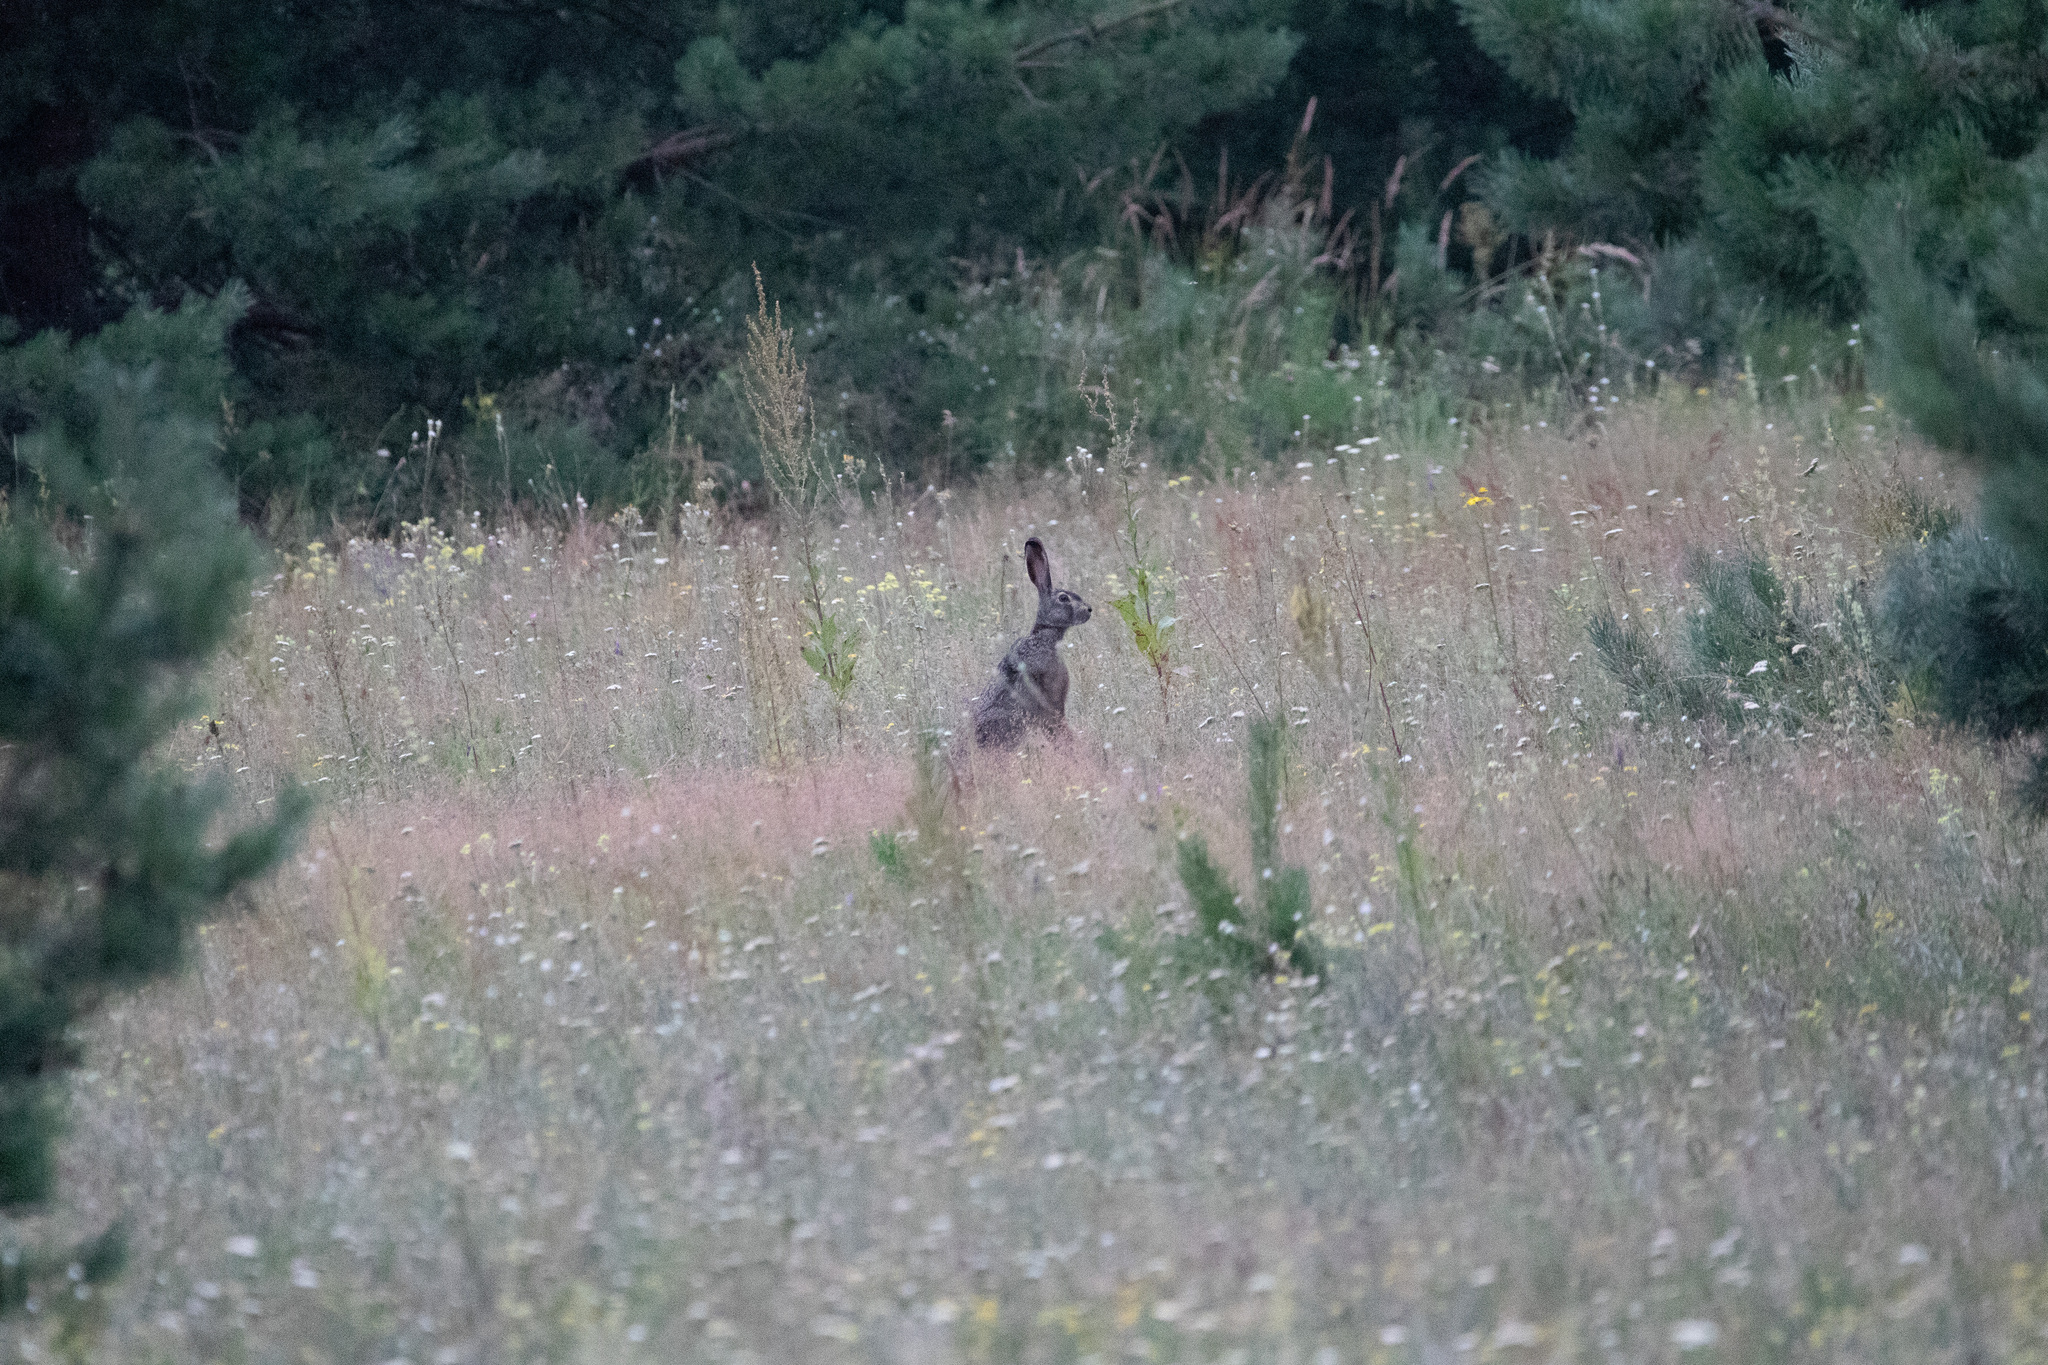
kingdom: Animalia
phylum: Chordata
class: Mammalia
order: Lagomorpha
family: Leporidae
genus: Lepus
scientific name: Lepus europaeus
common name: European hare
